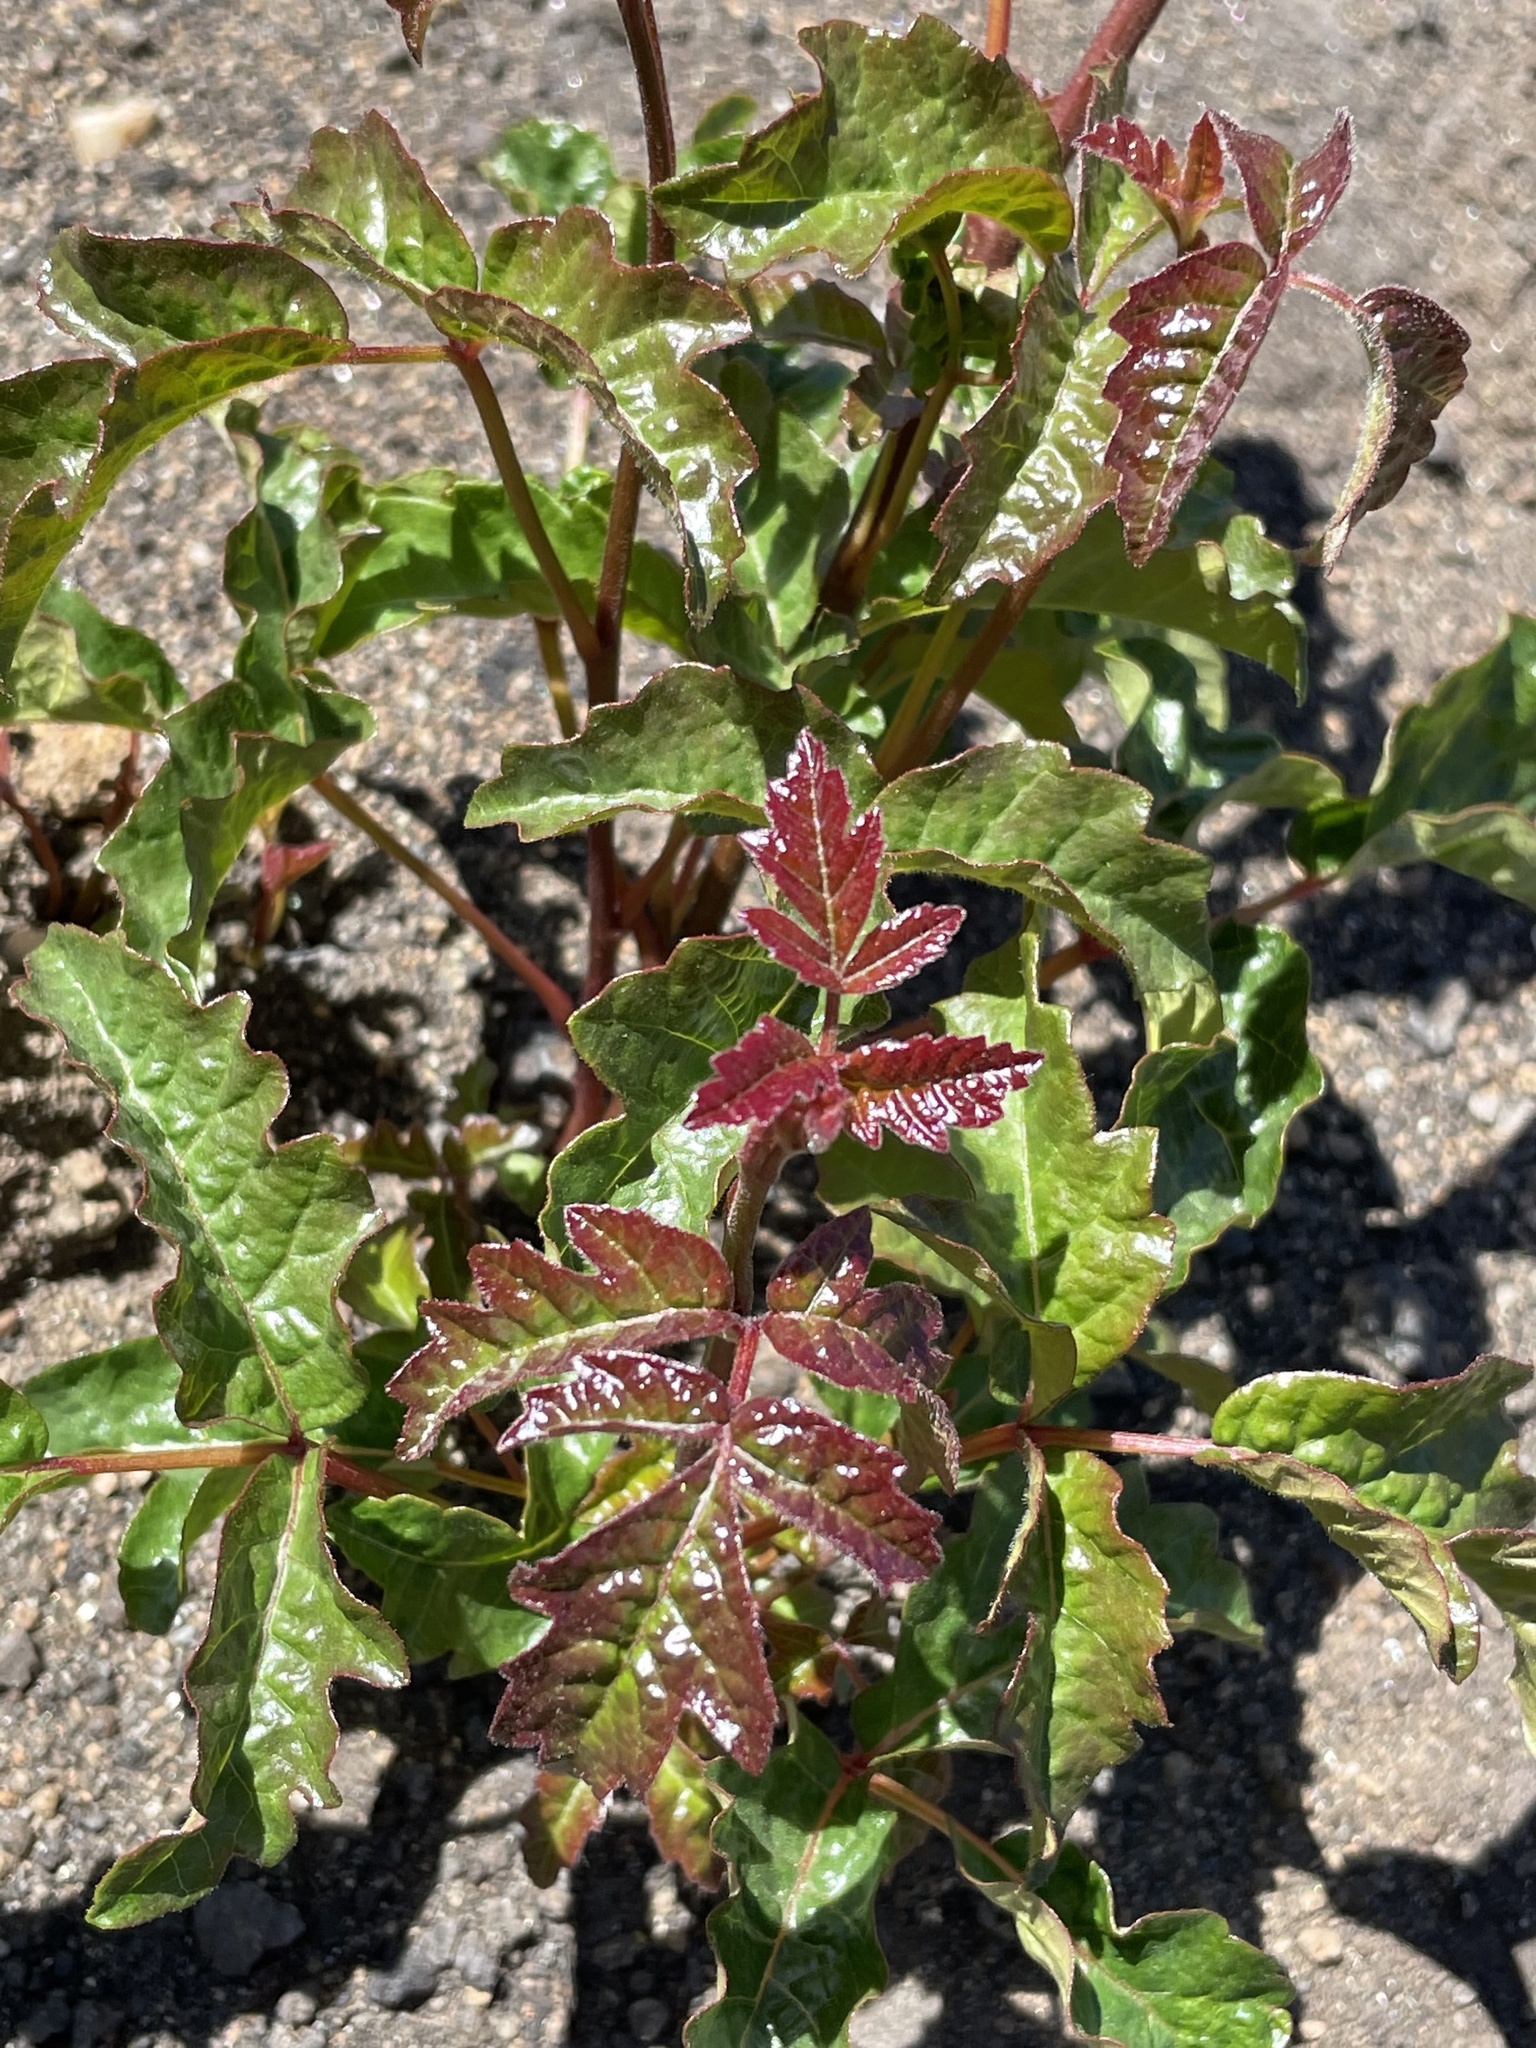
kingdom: Plantae
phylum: Tracheophyta
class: Magnoliopsida
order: Sapindales
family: Anacardiaceae
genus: Toxicodendron
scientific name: Toxicodendron diversilobum
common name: Pacific poison-oak
